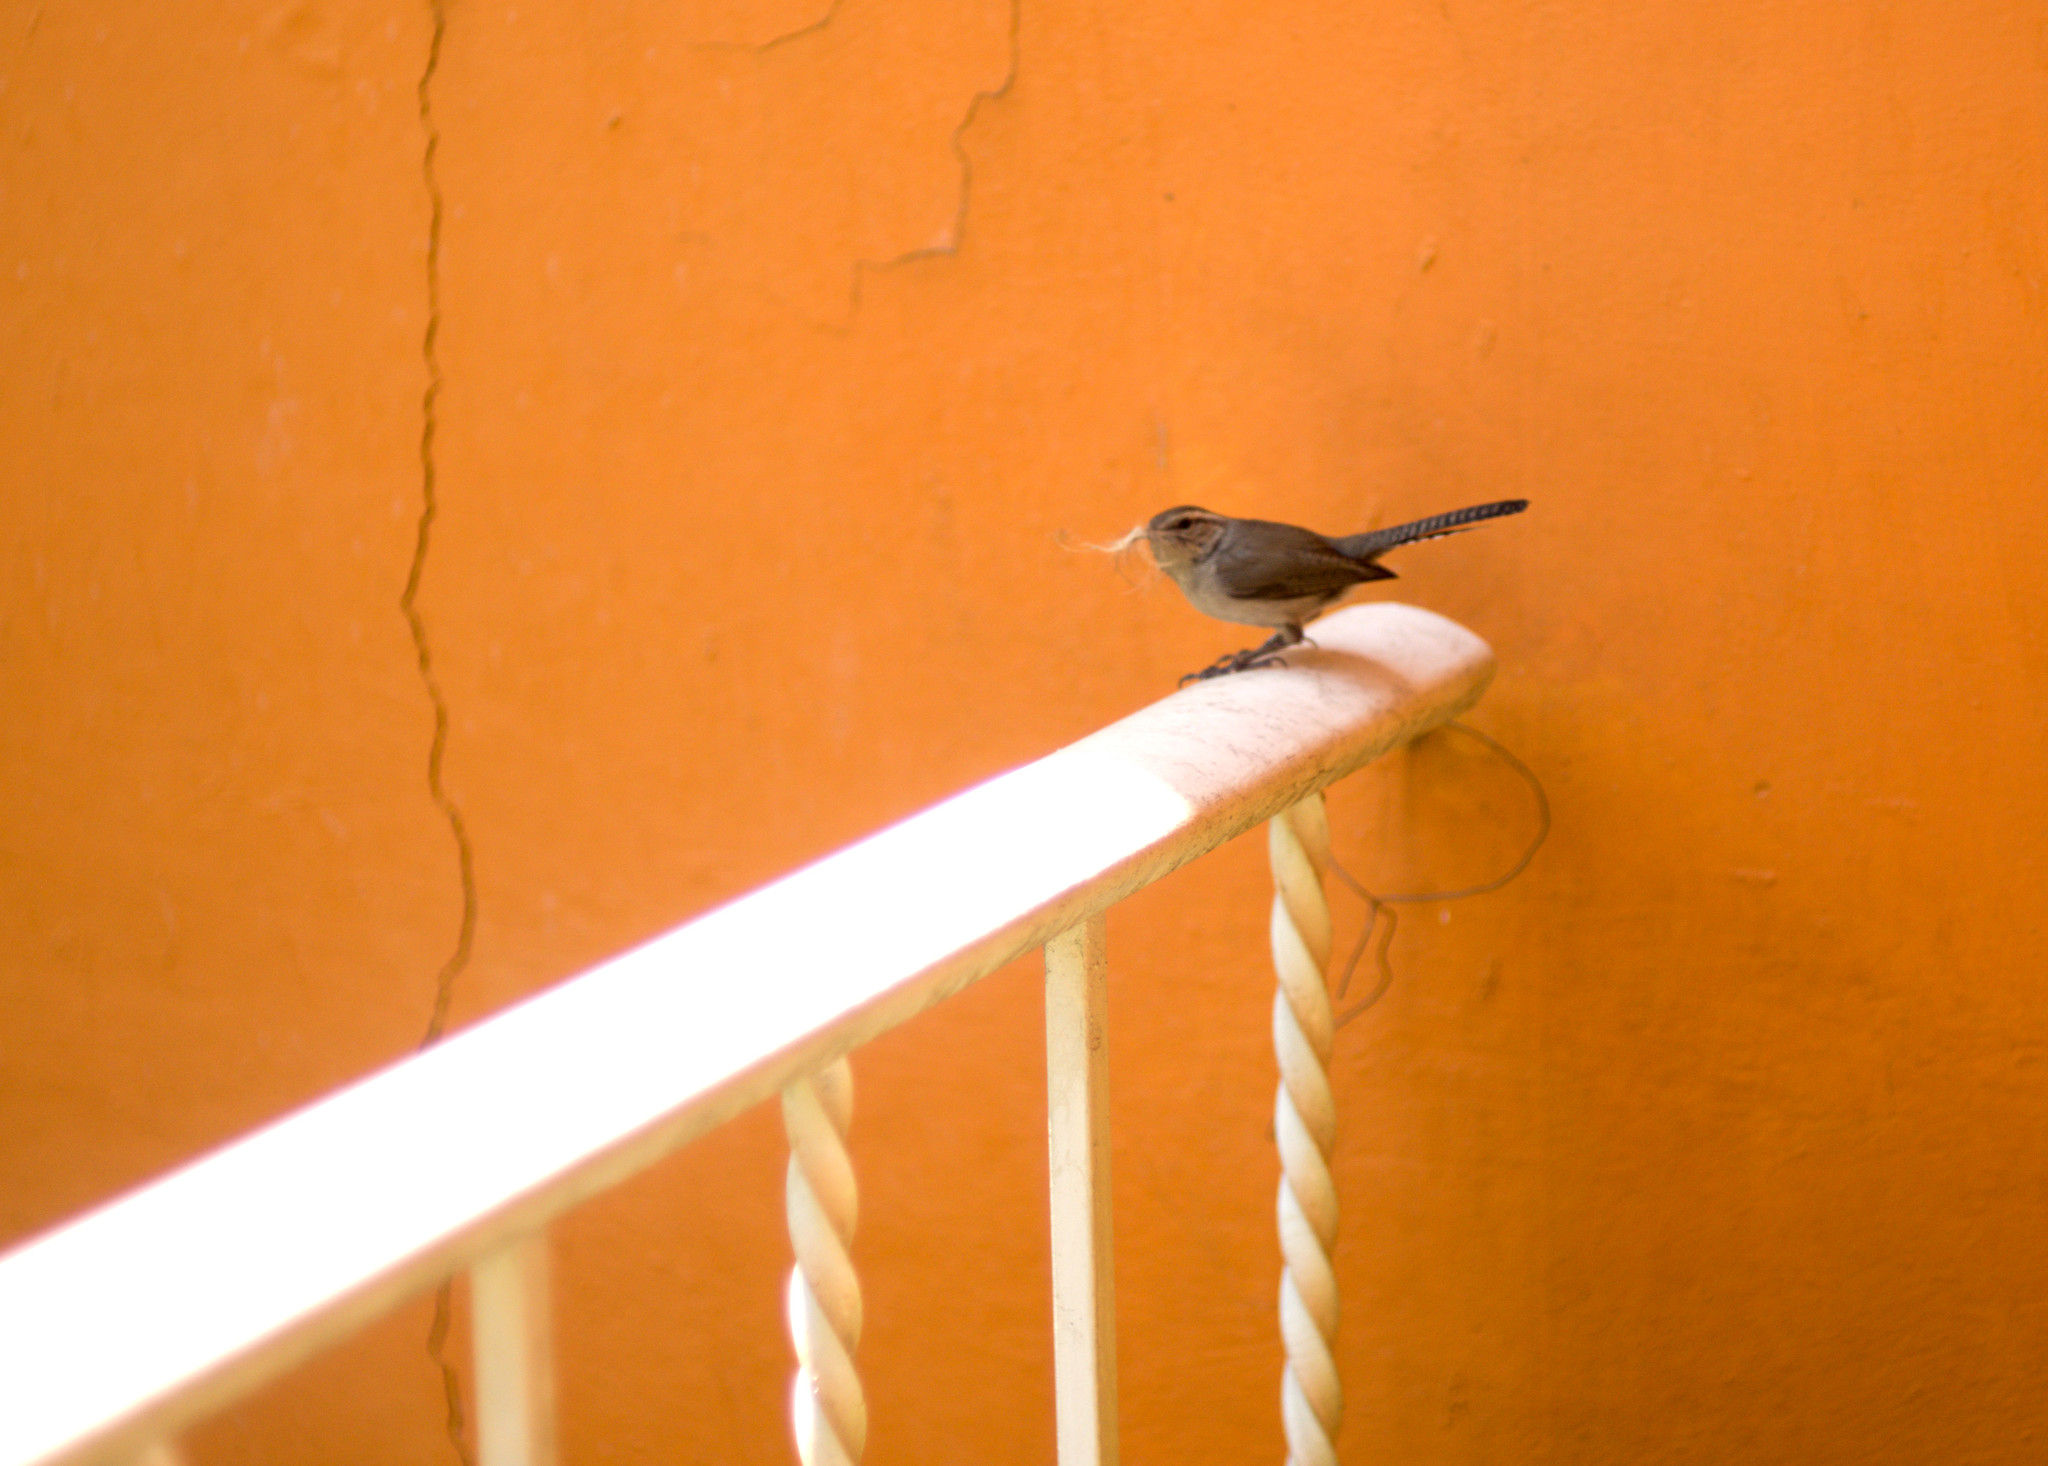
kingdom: Animalia
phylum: Chordata
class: Aves
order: Passeriformes
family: Troglodytidae
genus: Thryomanes
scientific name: Thryomanes bewickii
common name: Bewick's wren
